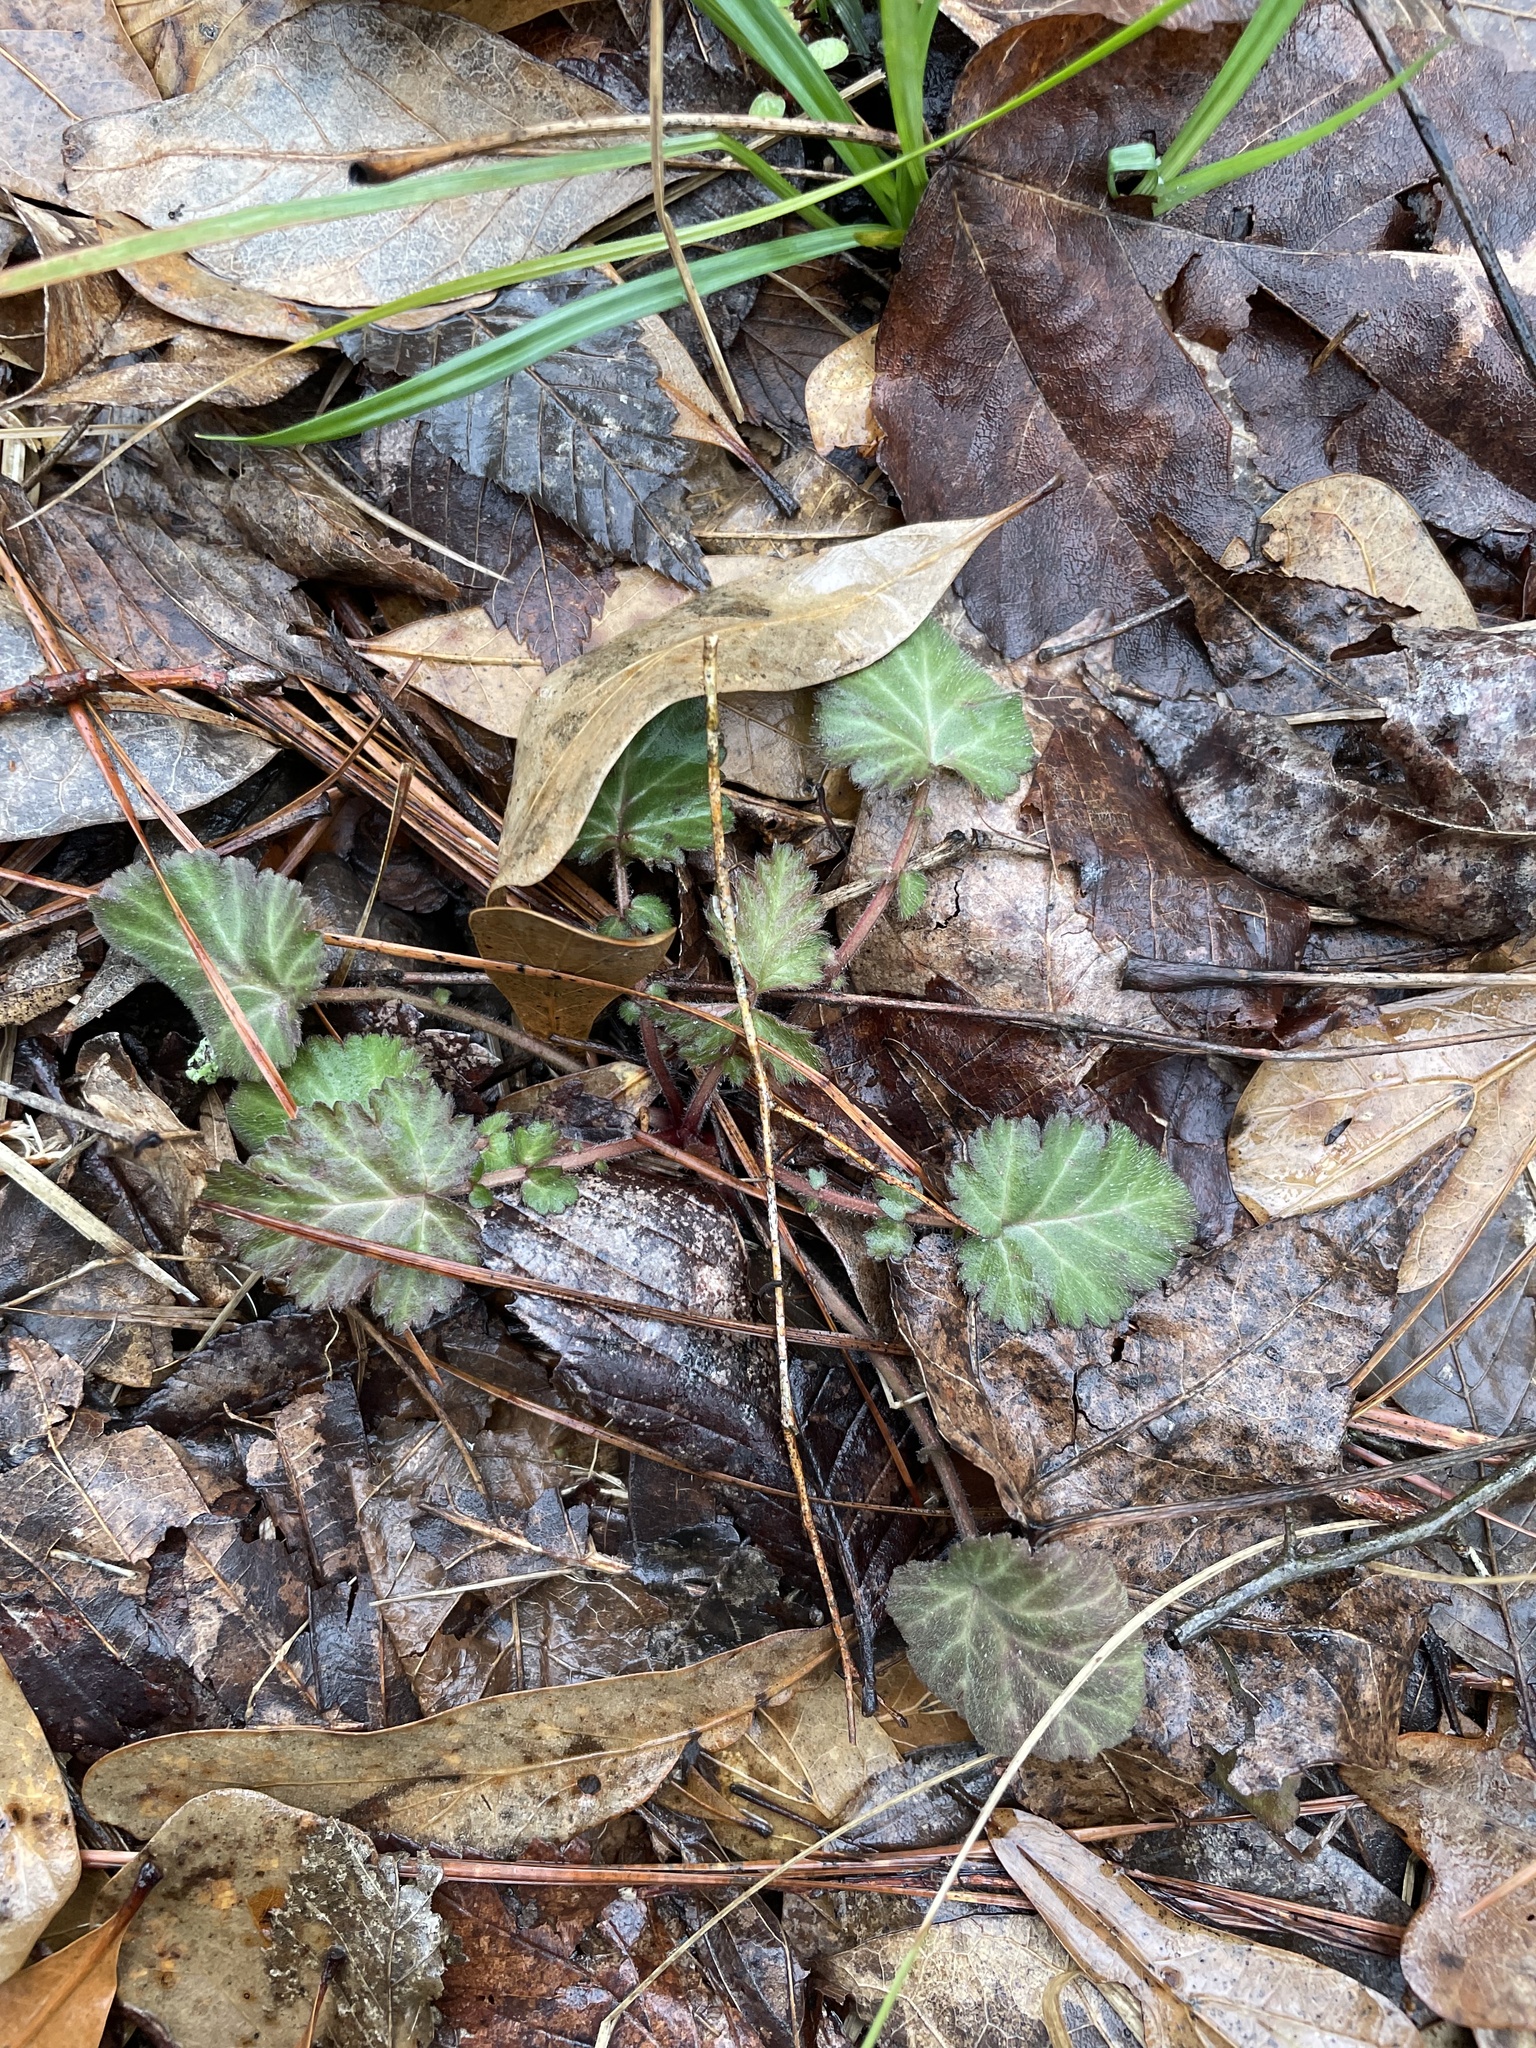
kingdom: Plantae
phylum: Tracheophyta
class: Magnoliopsida
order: Rosales
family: Rosaceae
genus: Geum
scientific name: Geum canadense
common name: White avens
